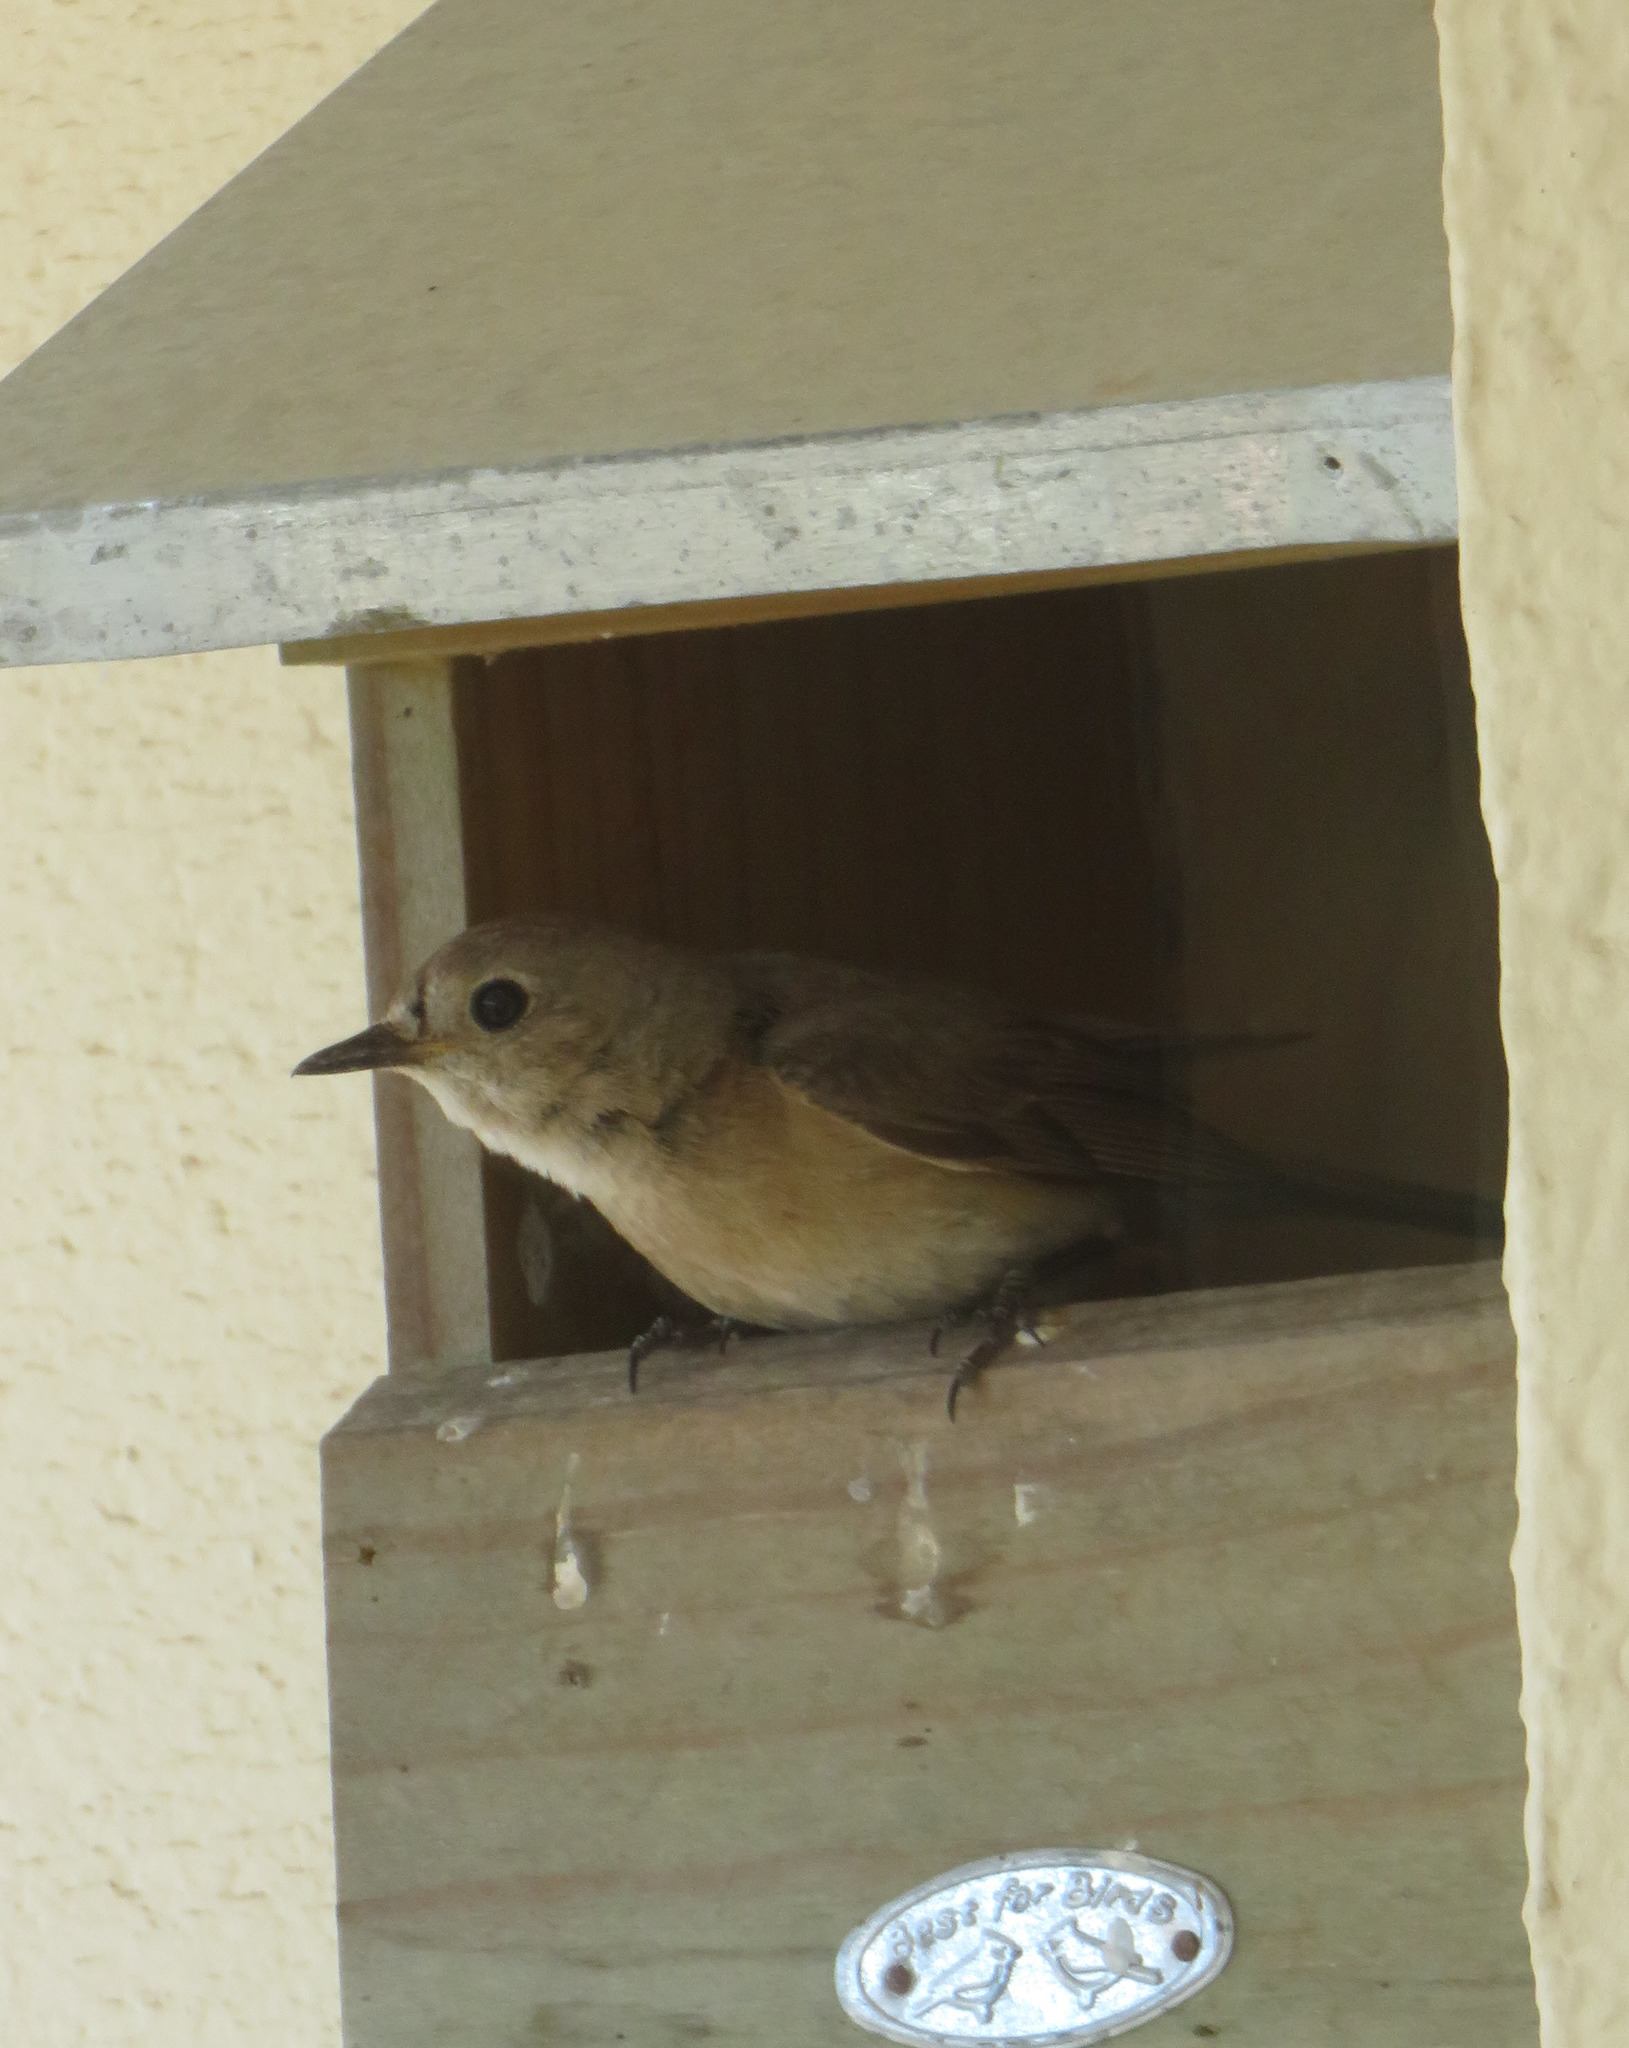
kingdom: Animalia
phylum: Chordata
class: Aves
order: Passeriformes
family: Muscicapidae
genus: Phoenicurus
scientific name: Phoenicurus phoenicurus
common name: Common redstart
